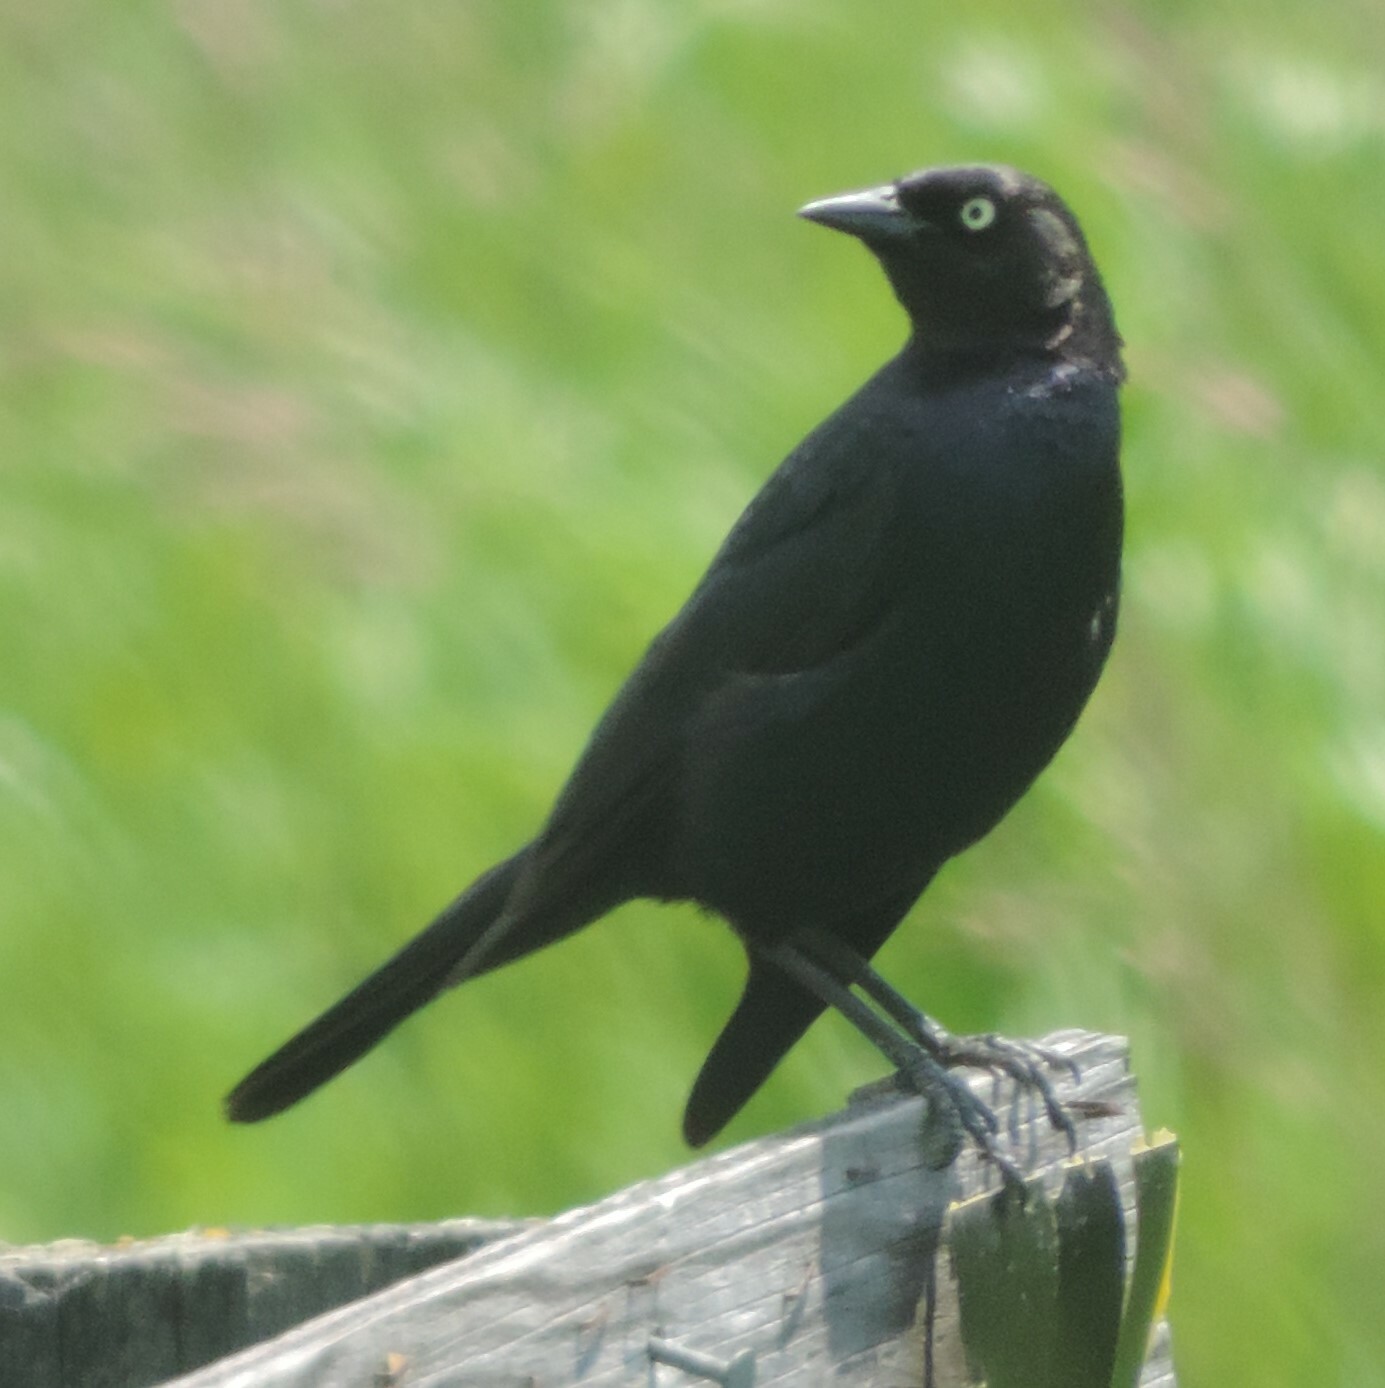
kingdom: Animalia
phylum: Chordata
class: Aves
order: Passeriformes
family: Icteridae
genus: Euphagus
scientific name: Euphagus cyanocephalus
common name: Brewer's blackbird
